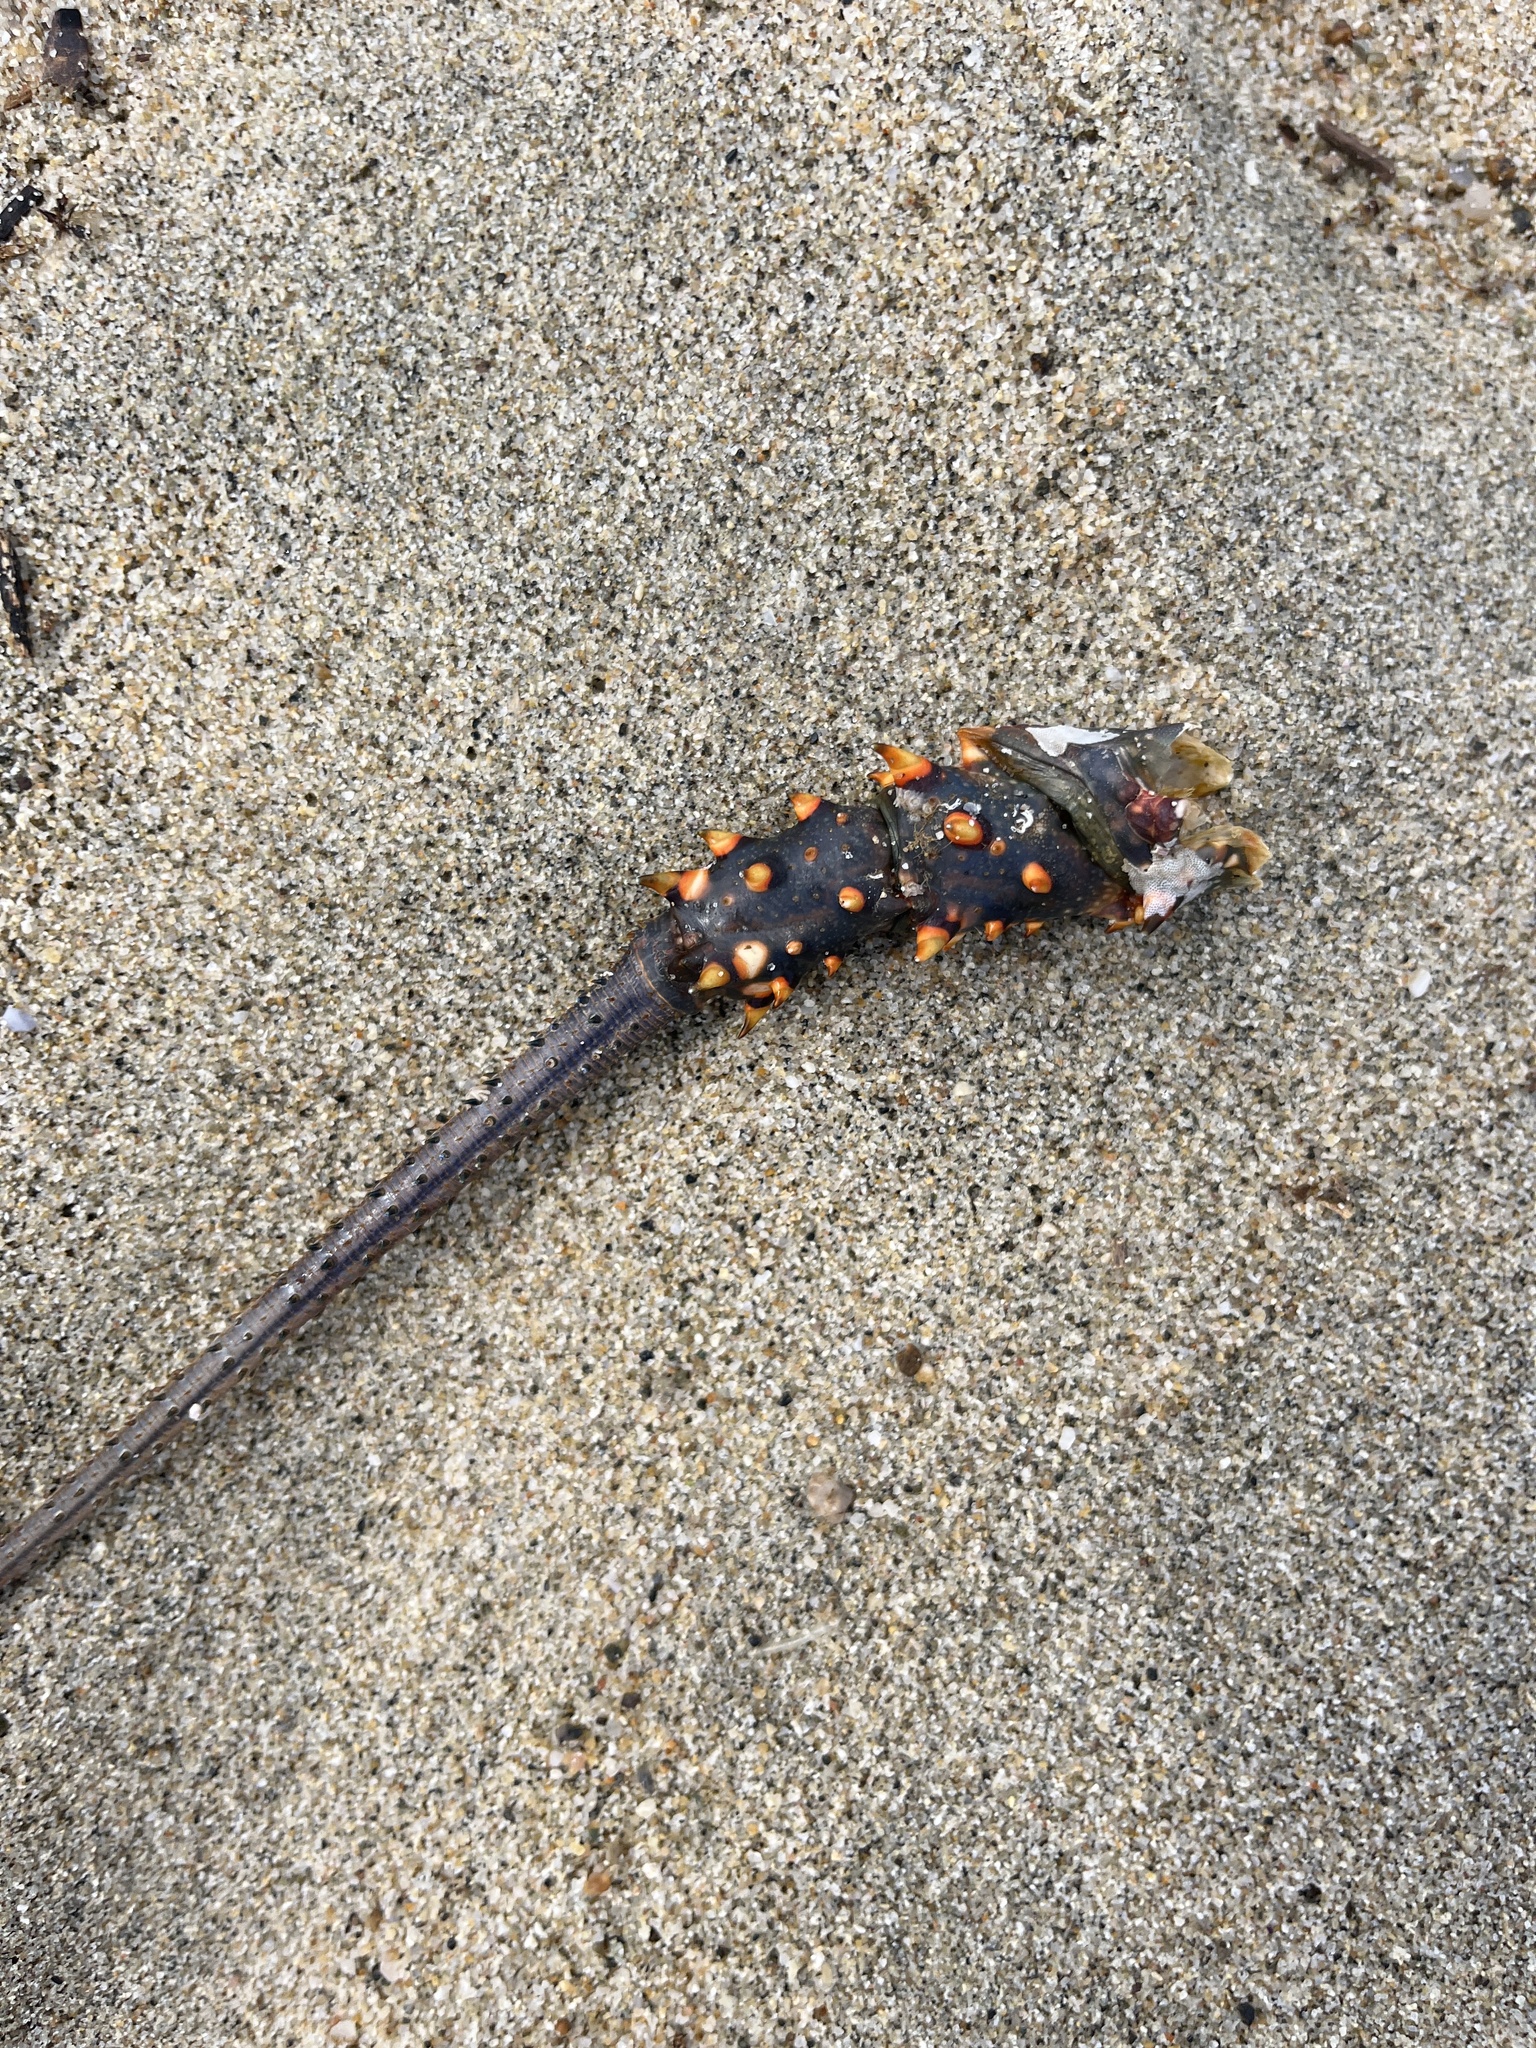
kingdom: Animalia
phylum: Arthropoda
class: Malacostraca
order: Decapoda
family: Palinuridae
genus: Panulirus
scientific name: Panulirus inflatus
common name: Blue spiny lobster
